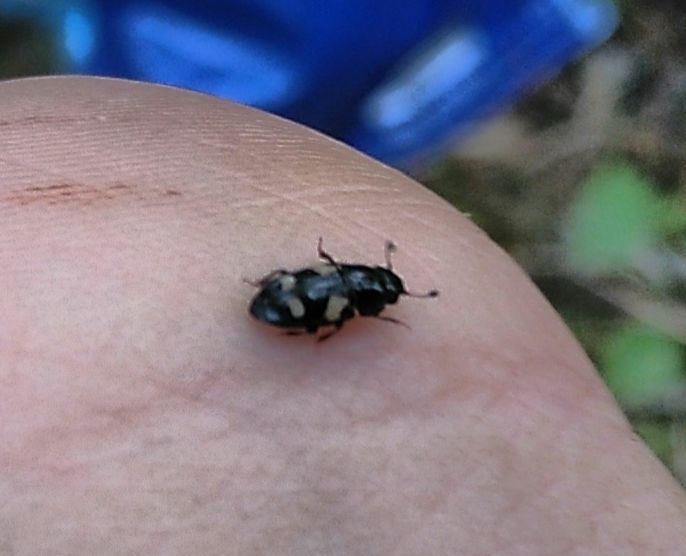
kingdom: Animalia
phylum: Arthropoda
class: Insecta
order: Coleoptera
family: Nitidulidae
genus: Glischrochilus
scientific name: Glischrochilus quadrisignatus
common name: Picnic beetle
